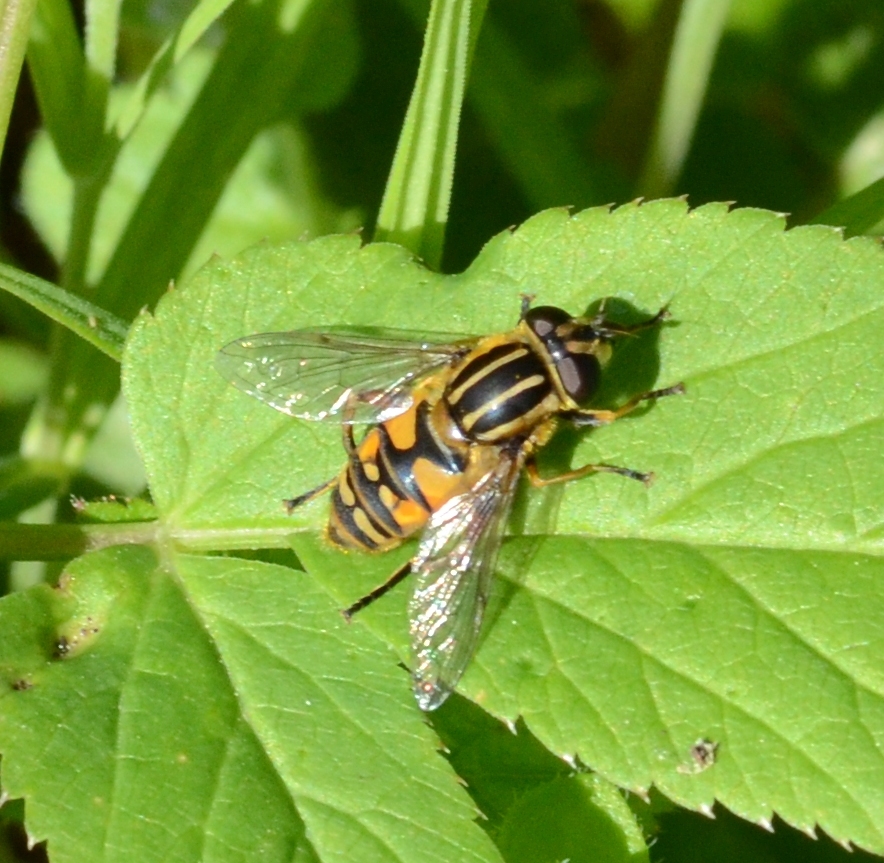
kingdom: Animalia
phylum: Arthropoda
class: Insecta
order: Diptera
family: Syrphidae
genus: Helophilus
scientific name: Helophilus pendulus
